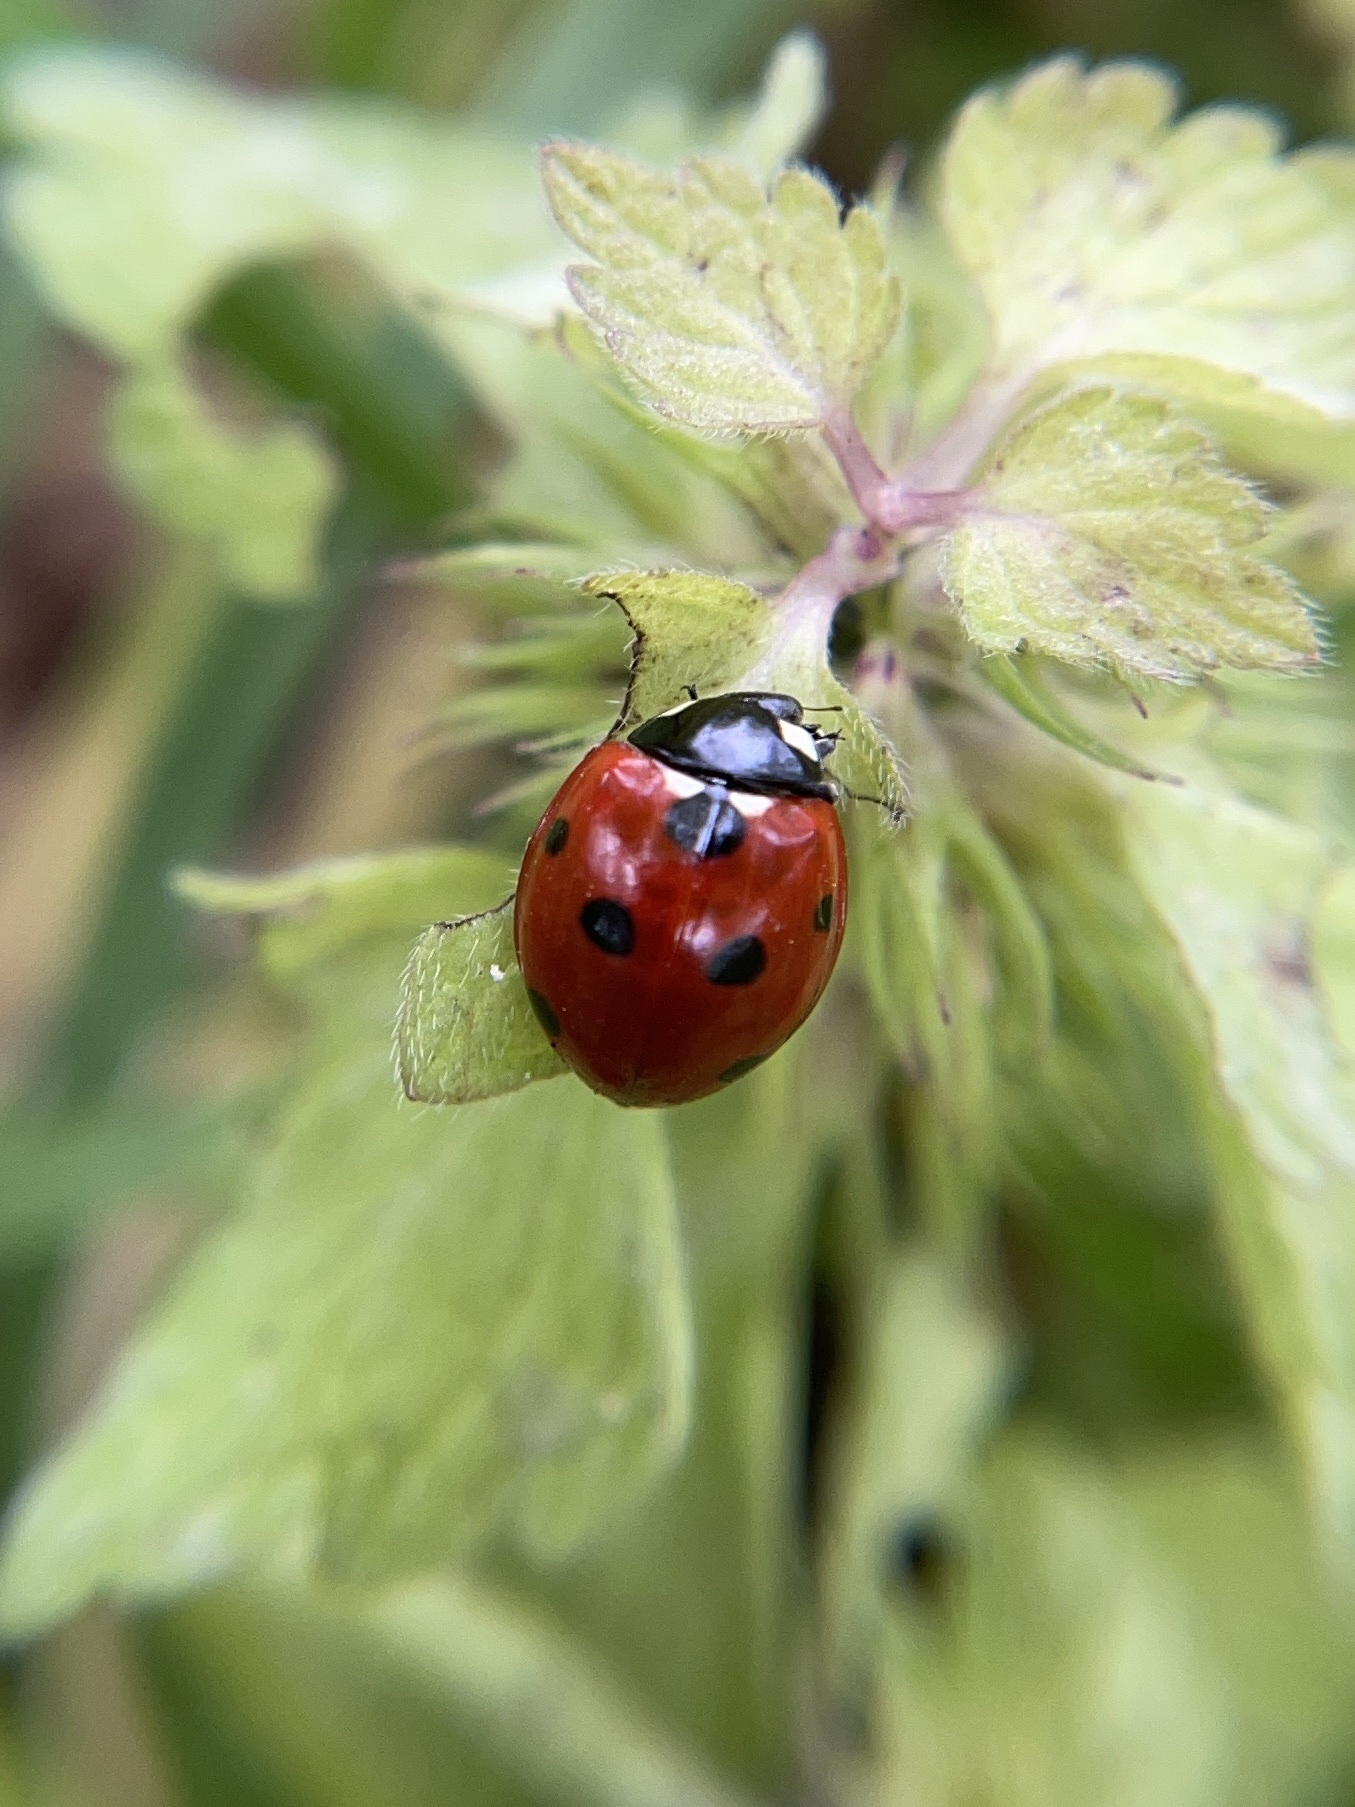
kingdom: Animalia
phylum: Arthropoda
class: Insecta
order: Coleoptera
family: Coccinellidae
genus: Coccinella
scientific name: Coccinella septempunctata
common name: Sevenspotted lady beetle
